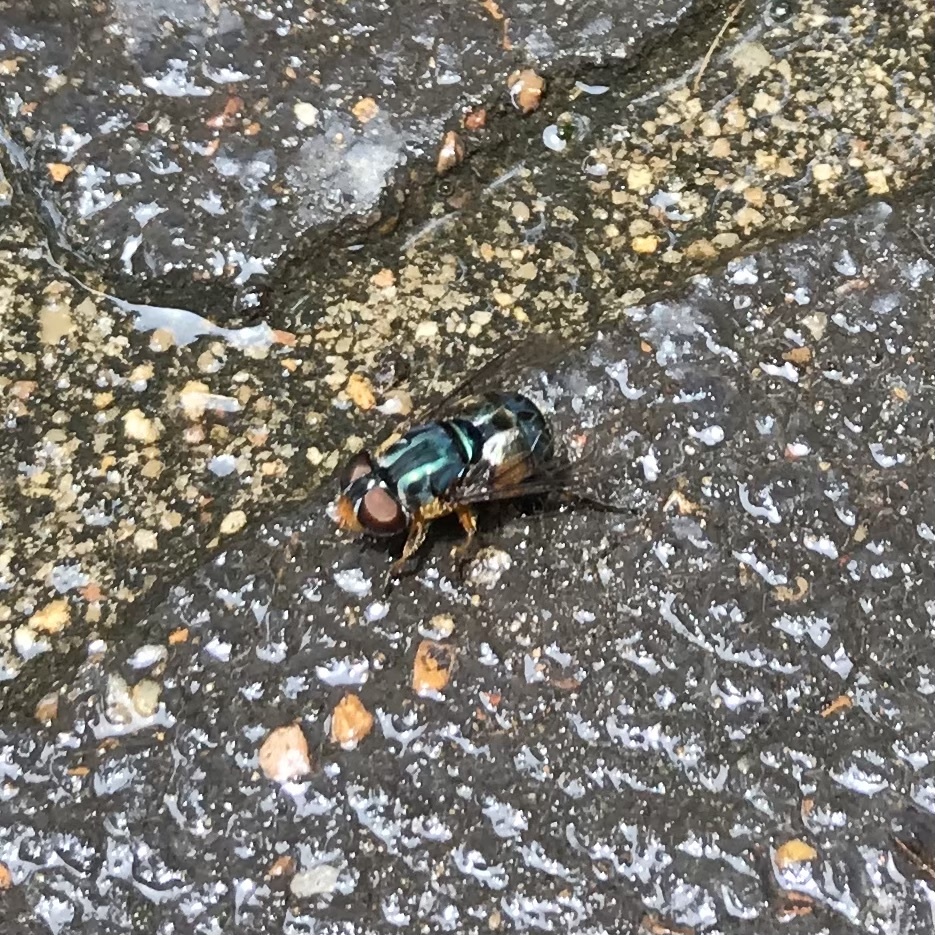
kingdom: Animalia
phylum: Arthropoda
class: Insecta
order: Diptera
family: Syrphidae
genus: Austalis
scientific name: Austalis copiosa
